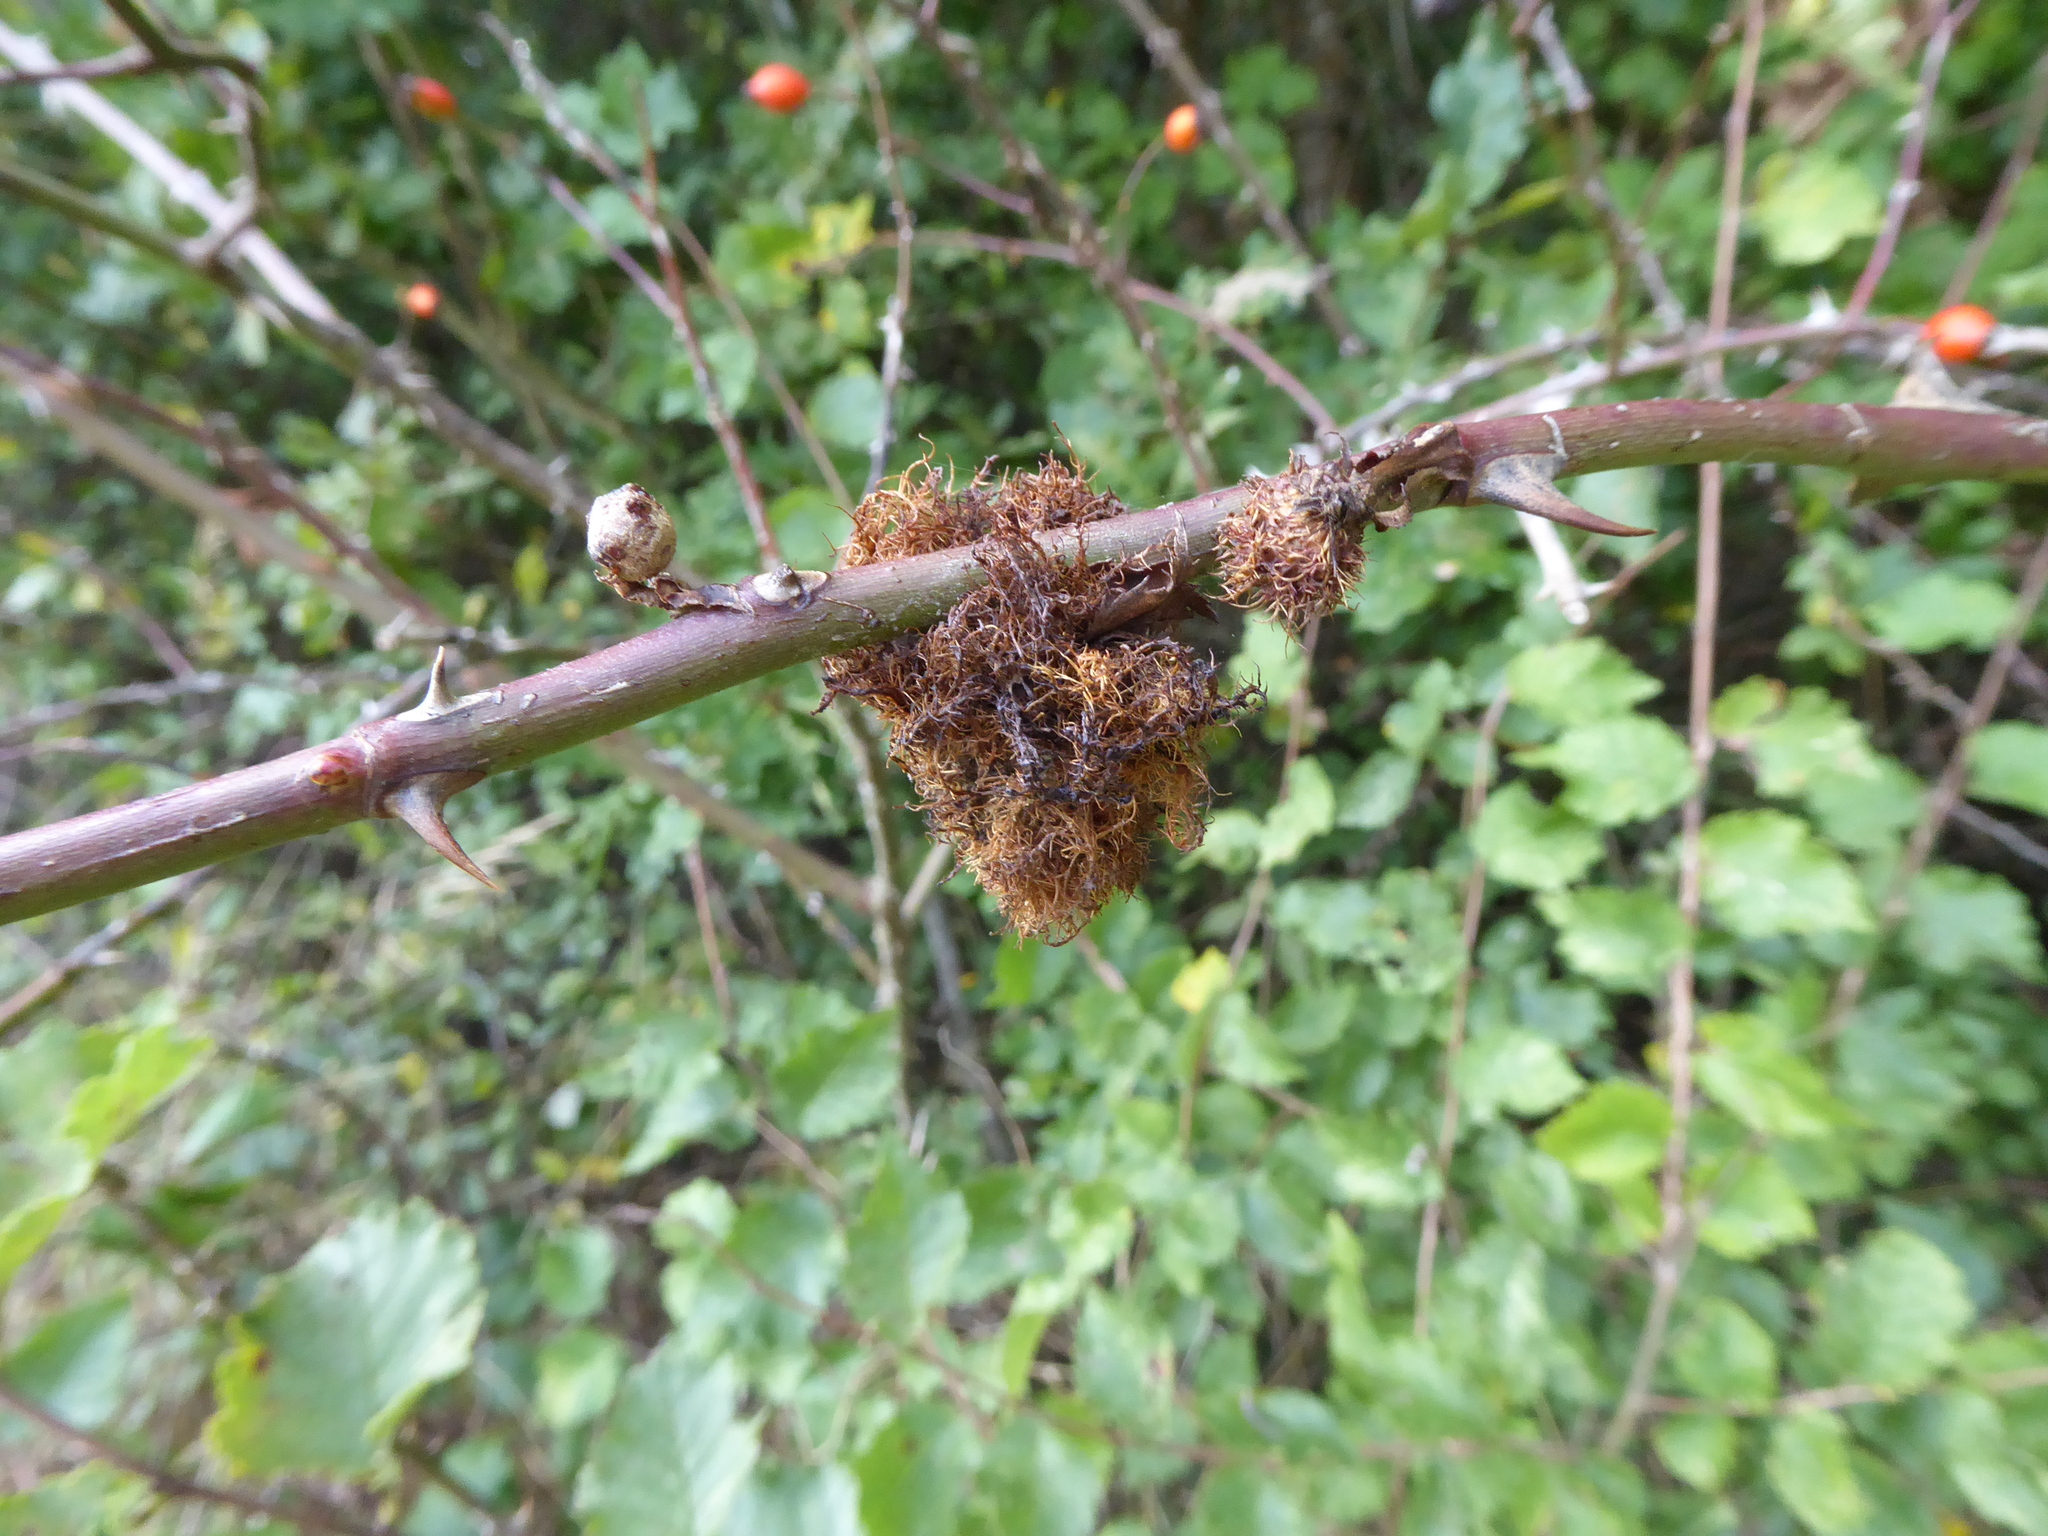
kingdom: Animalia
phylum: Arthropoda
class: Insecta
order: Hymenoptera
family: Cynipidae
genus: Diplolepis
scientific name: Diplolepis rosae
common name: Bedeguar gall
